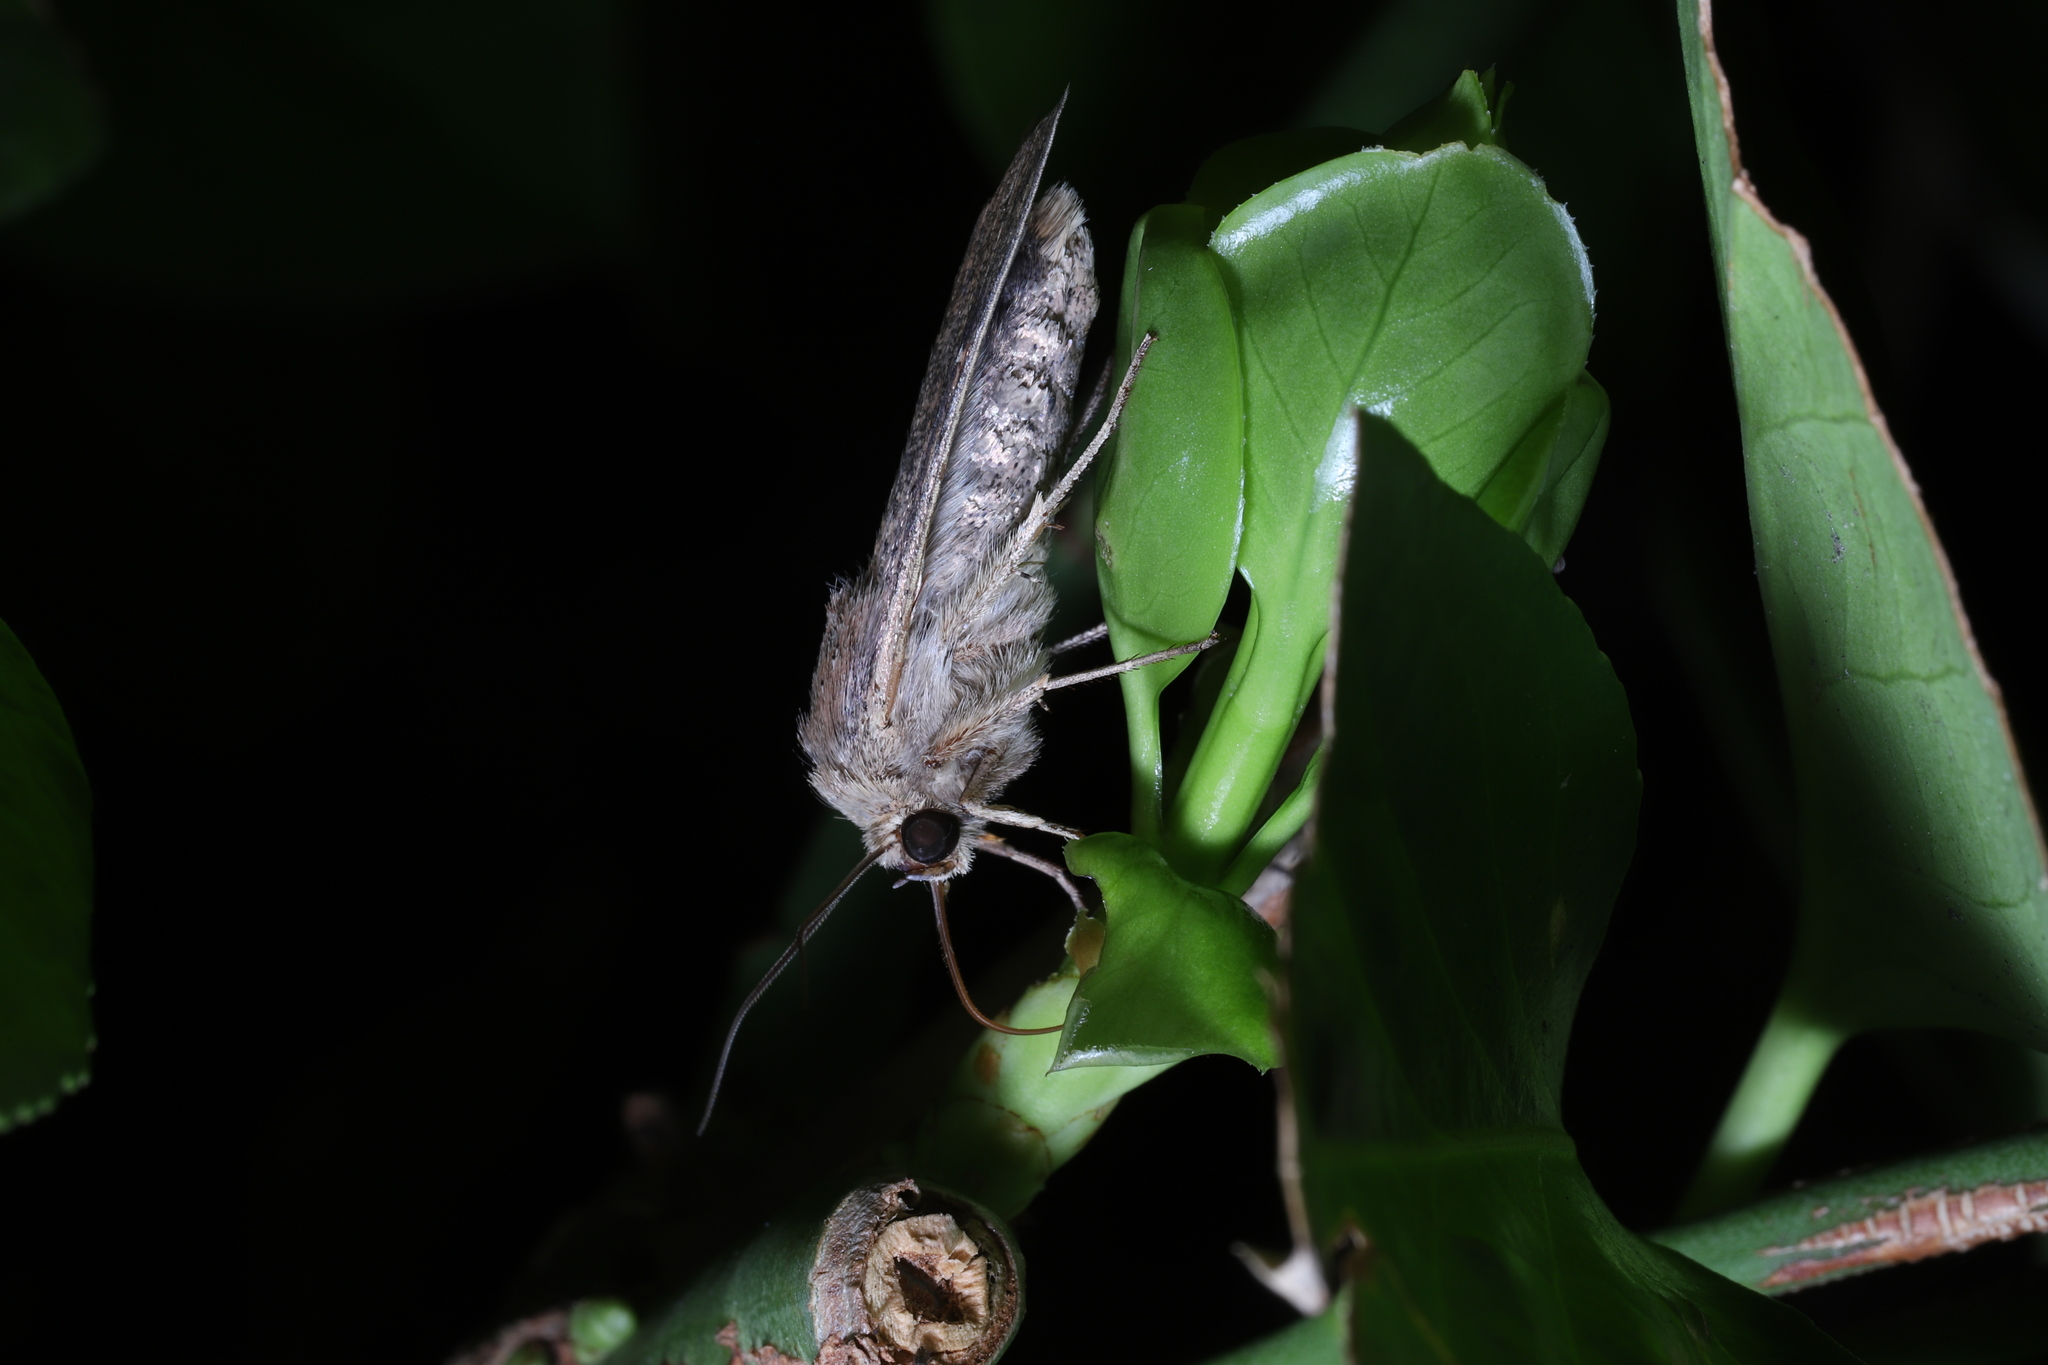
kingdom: Animalia
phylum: Arthropoda
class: Insecta
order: Lepidoptera
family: Noctuidae
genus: Mythimna
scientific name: Mythimna unipuncta
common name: White-speck
